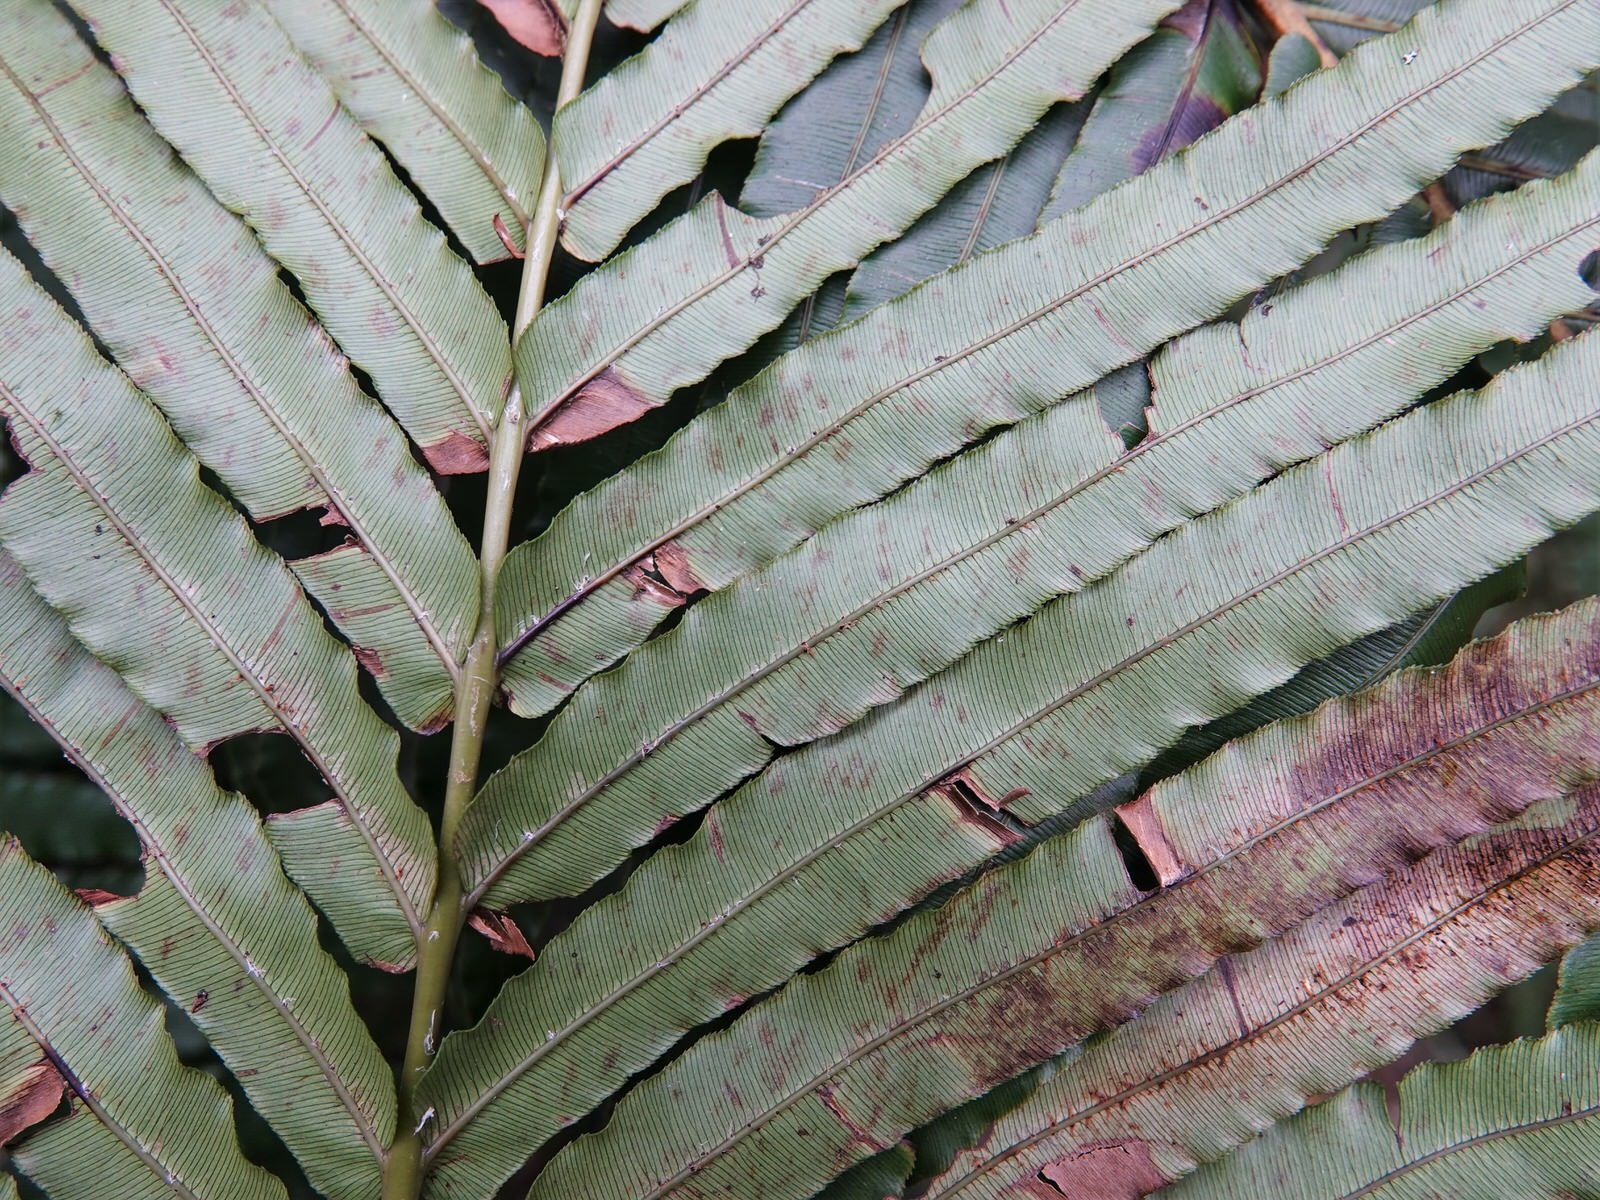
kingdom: Plantae
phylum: Tracheophyta
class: Polypodiopsida
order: Polypodiales
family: Blechnaceae
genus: Parablechnum
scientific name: Parablechnum novae-zelandiae
